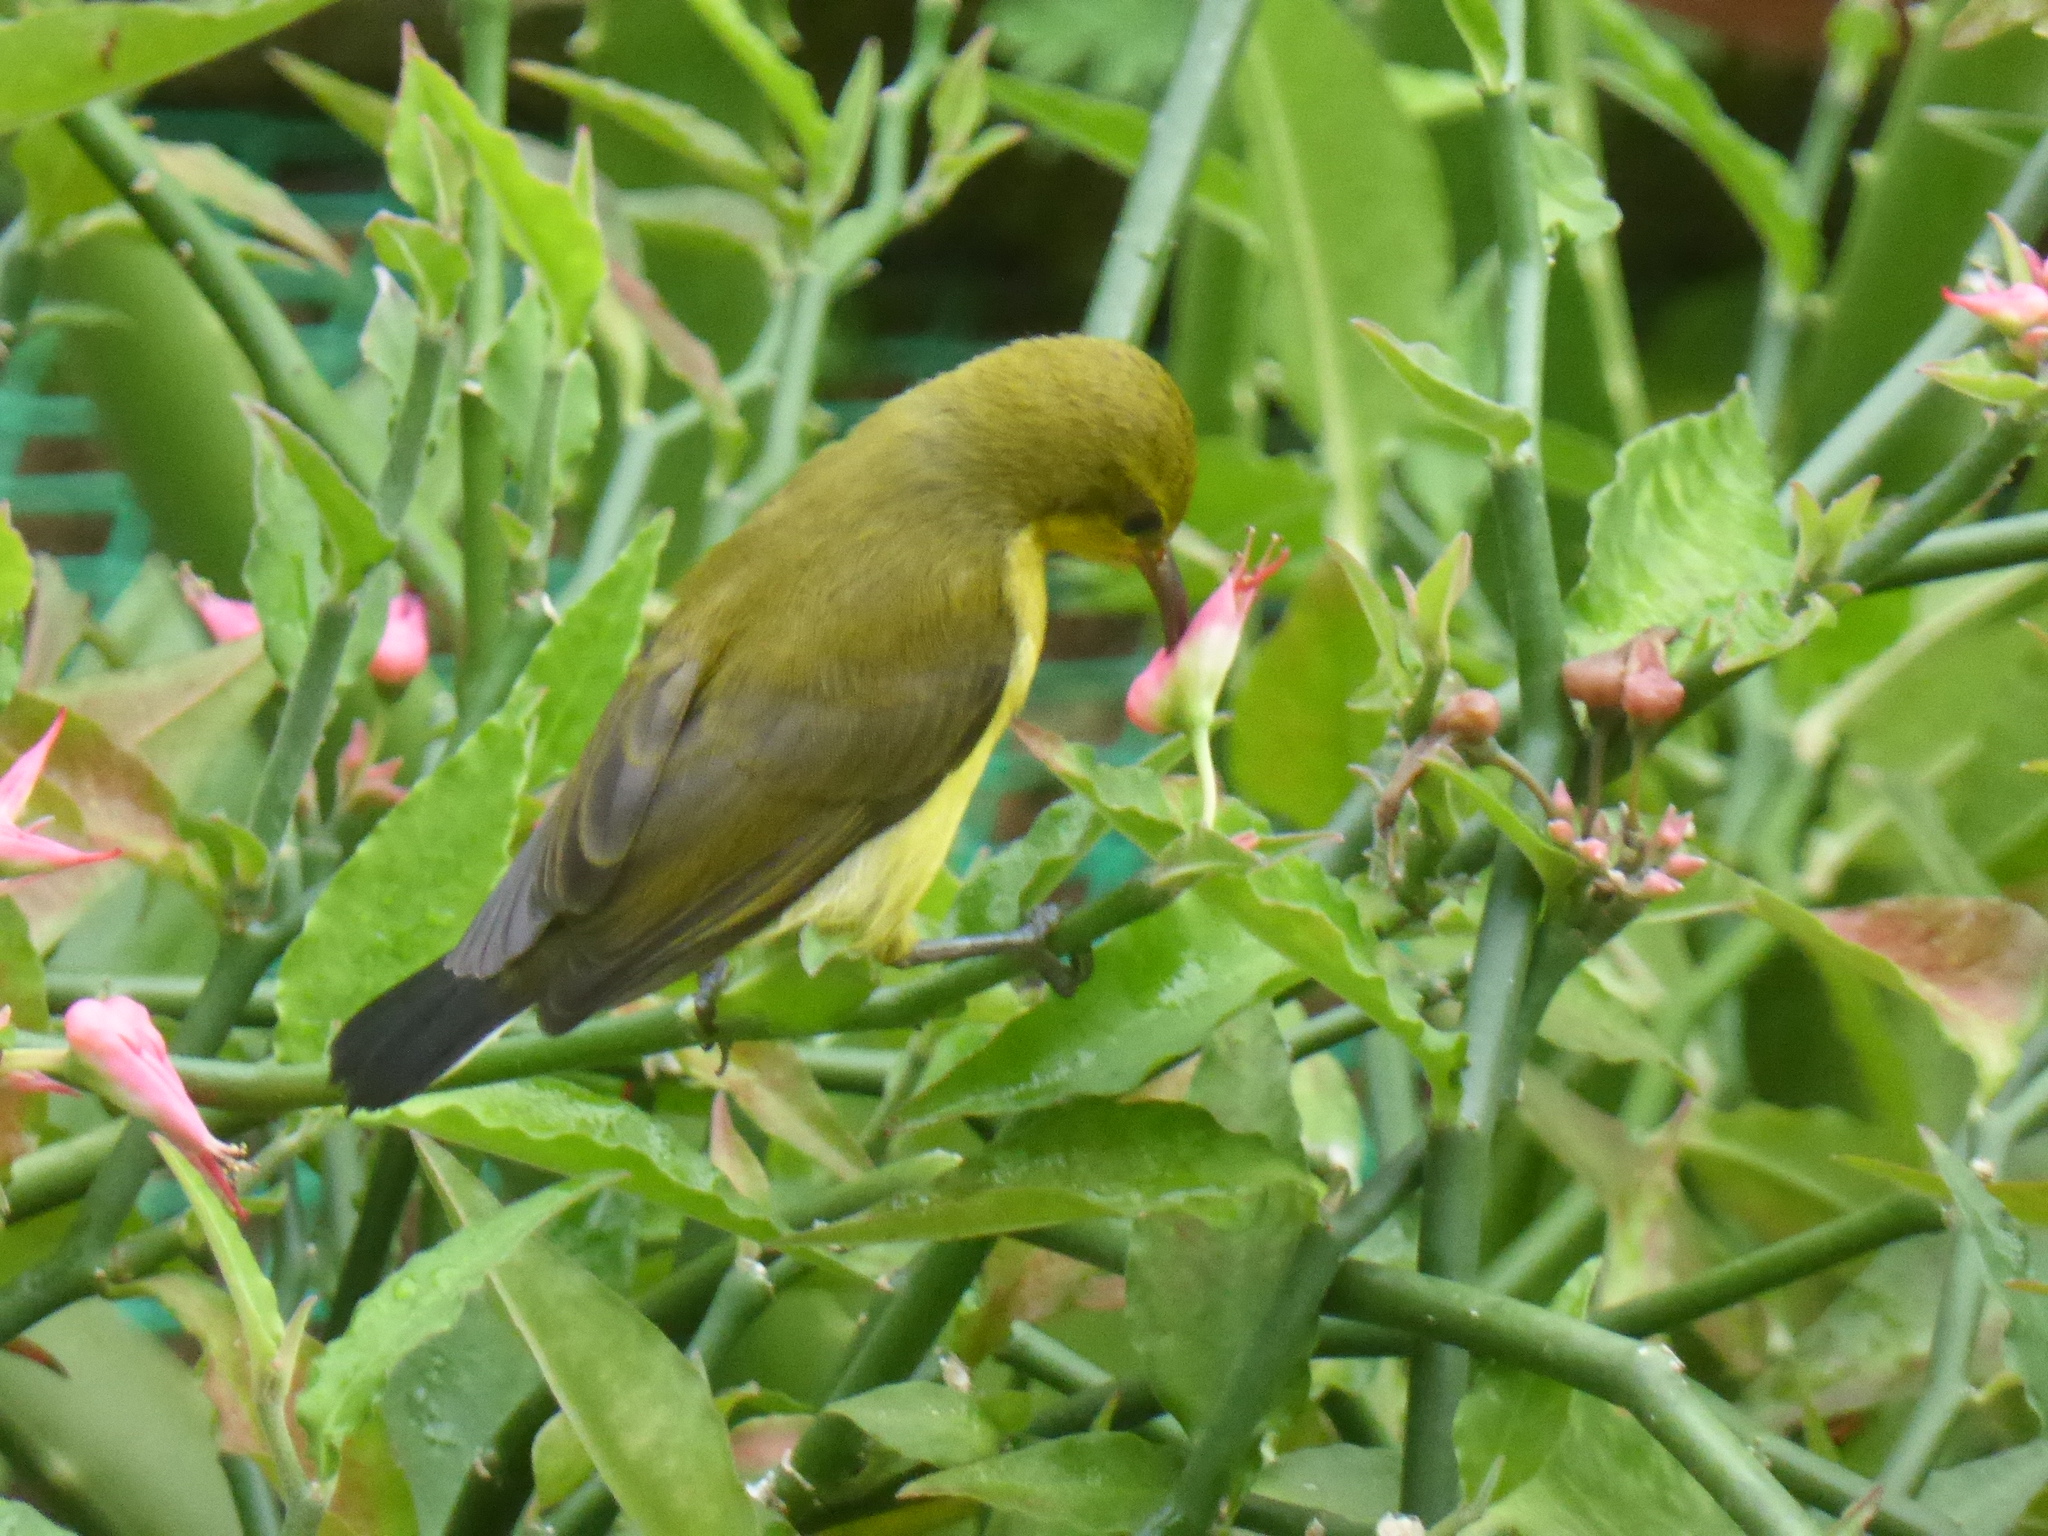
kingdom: Animalia
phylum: Chordata
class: Aves
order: Passeriformes
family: Nectariniidae
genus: Cinnyris
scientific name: Cinnyris
